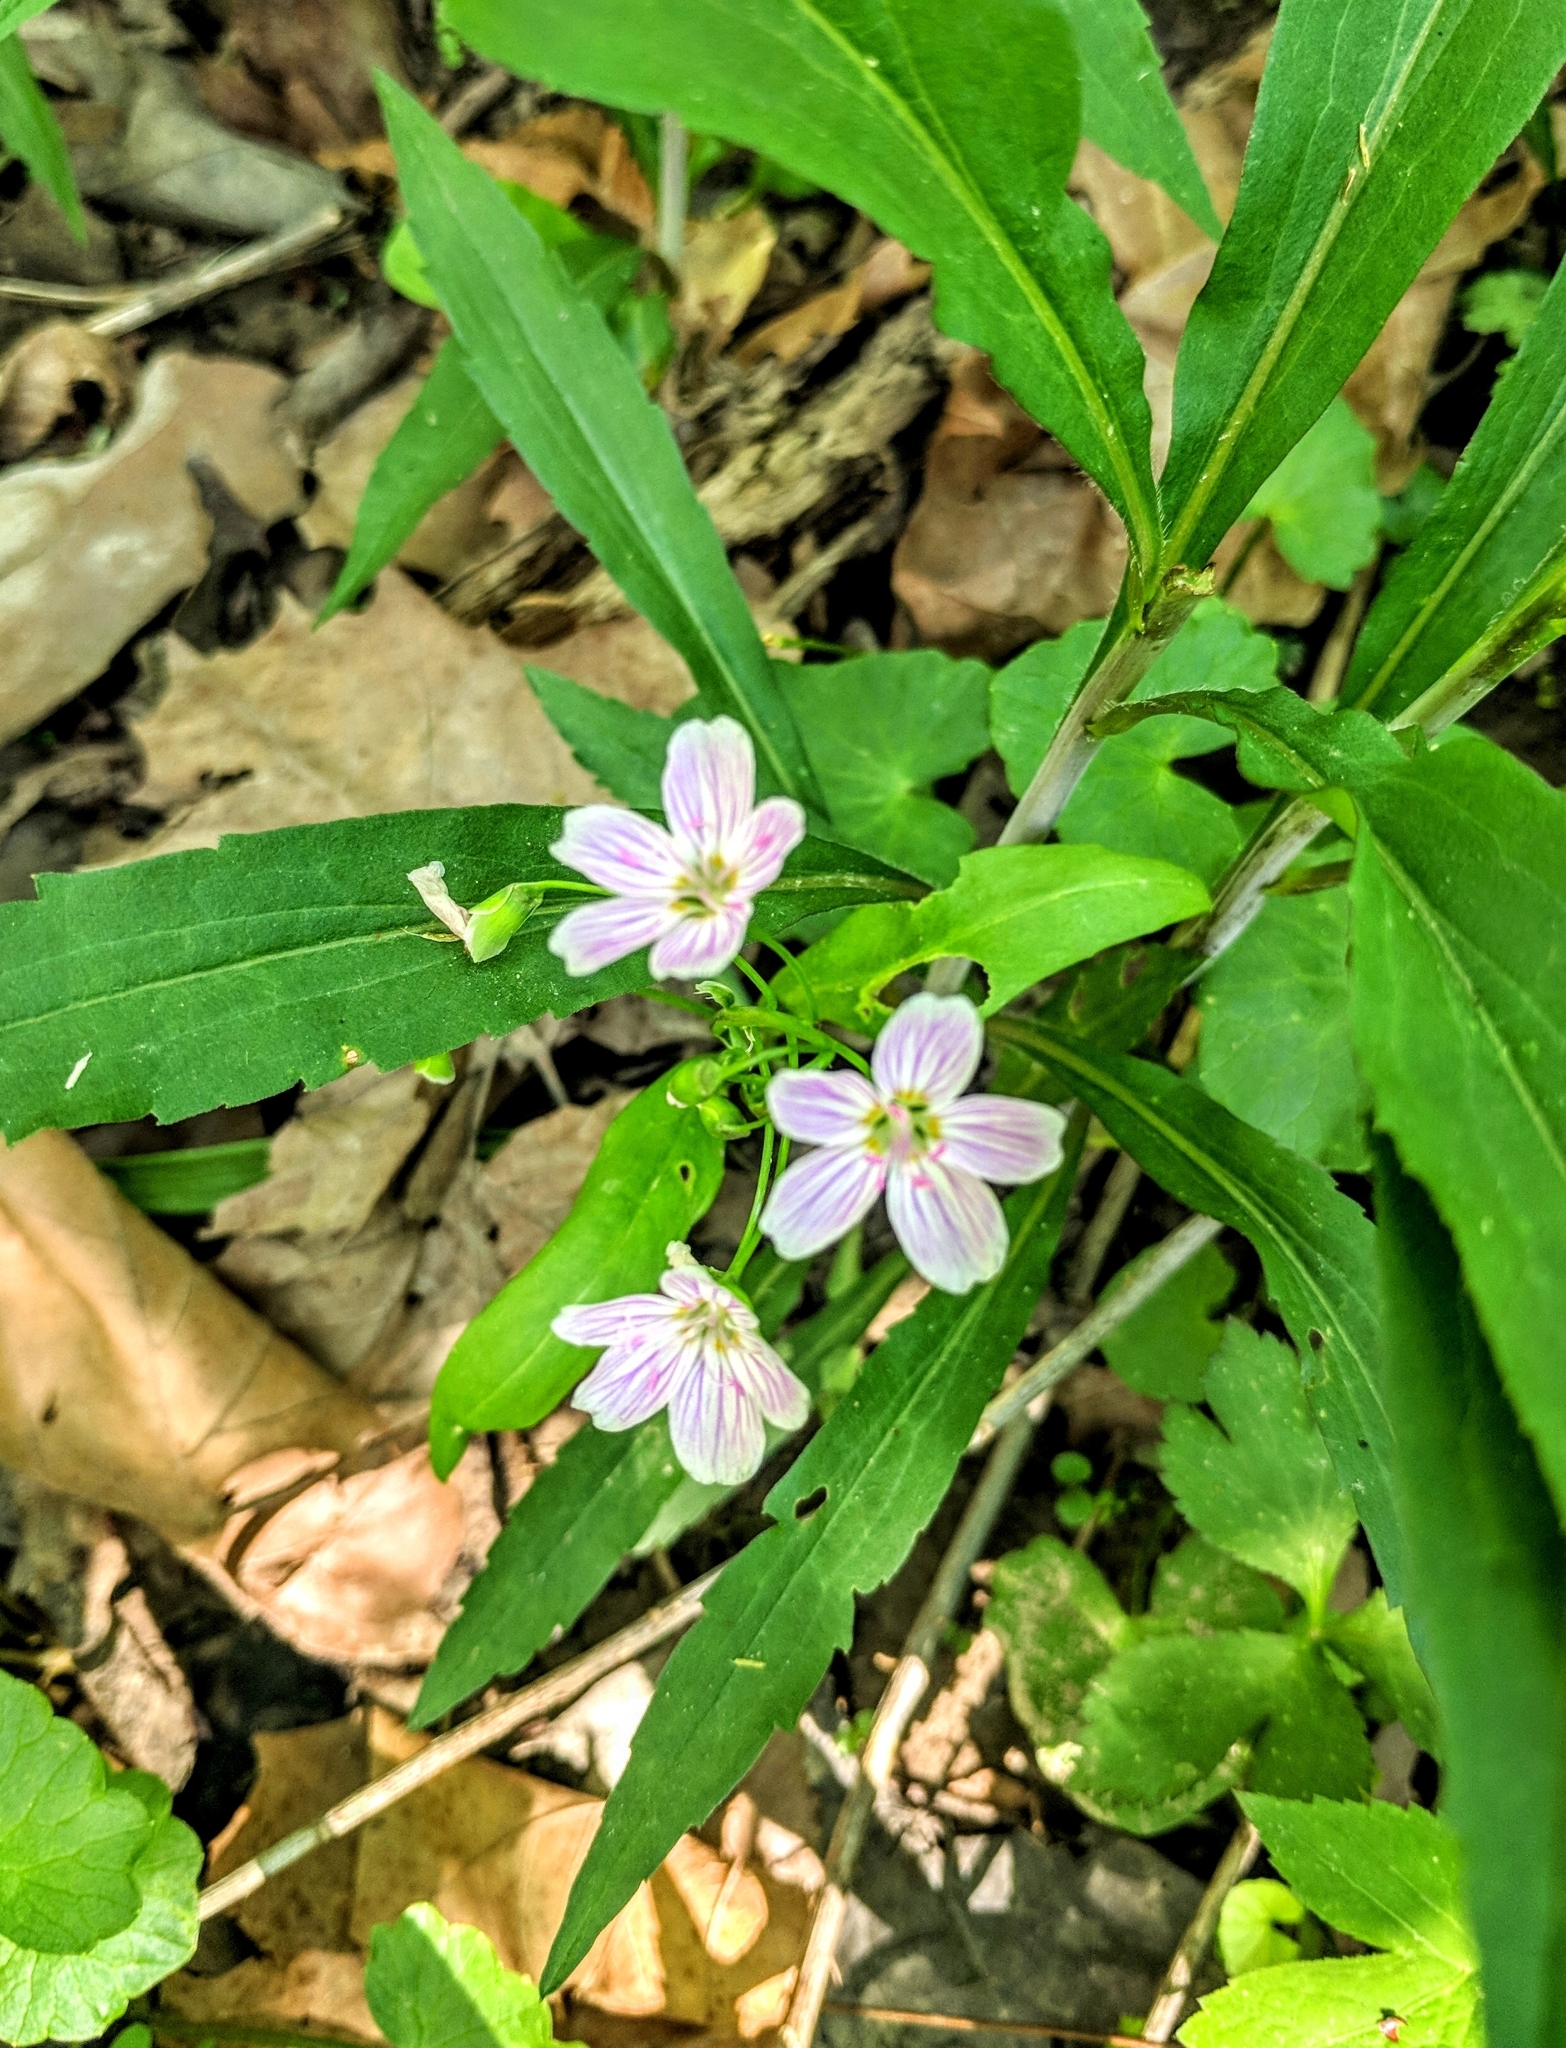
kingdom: Plantae
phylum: Tracheophyta
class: Magnoliopsida
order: Caryophyllales
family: Montiaceae
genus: Claytonia
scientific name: Claytonia virginica
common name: Virginia springbeauty
